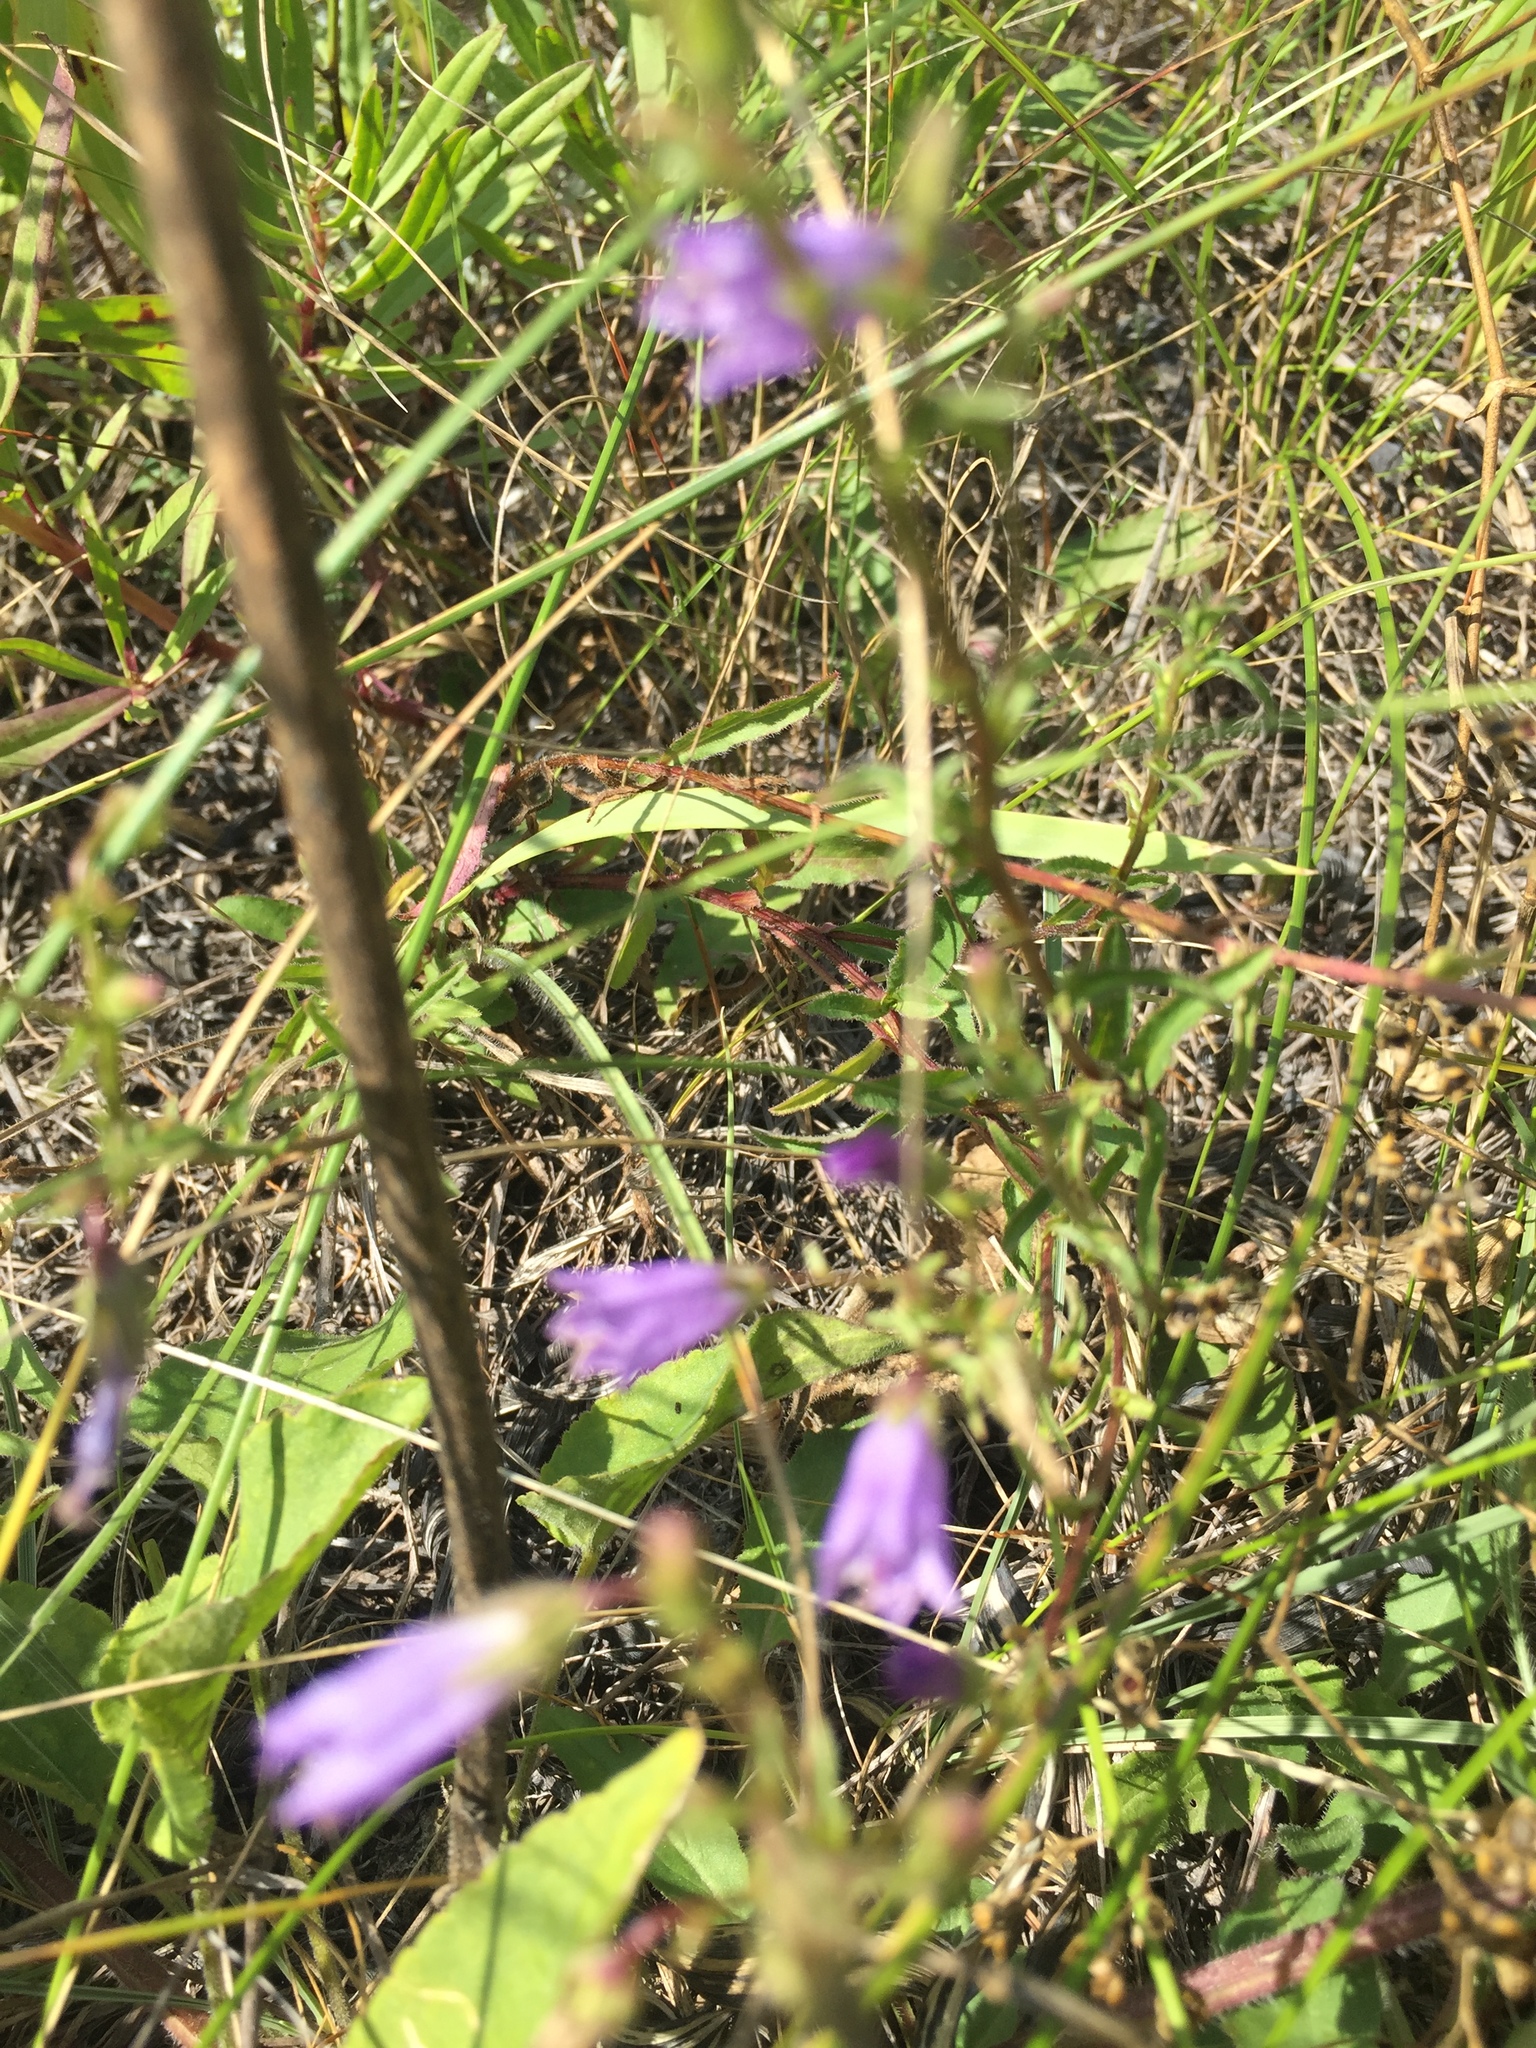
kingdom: Plantae
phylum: Tracheophyta
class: Magnoliopsida
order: Asterales
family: Campanulaceae
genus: Campanula
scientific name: Campanula sibirica
